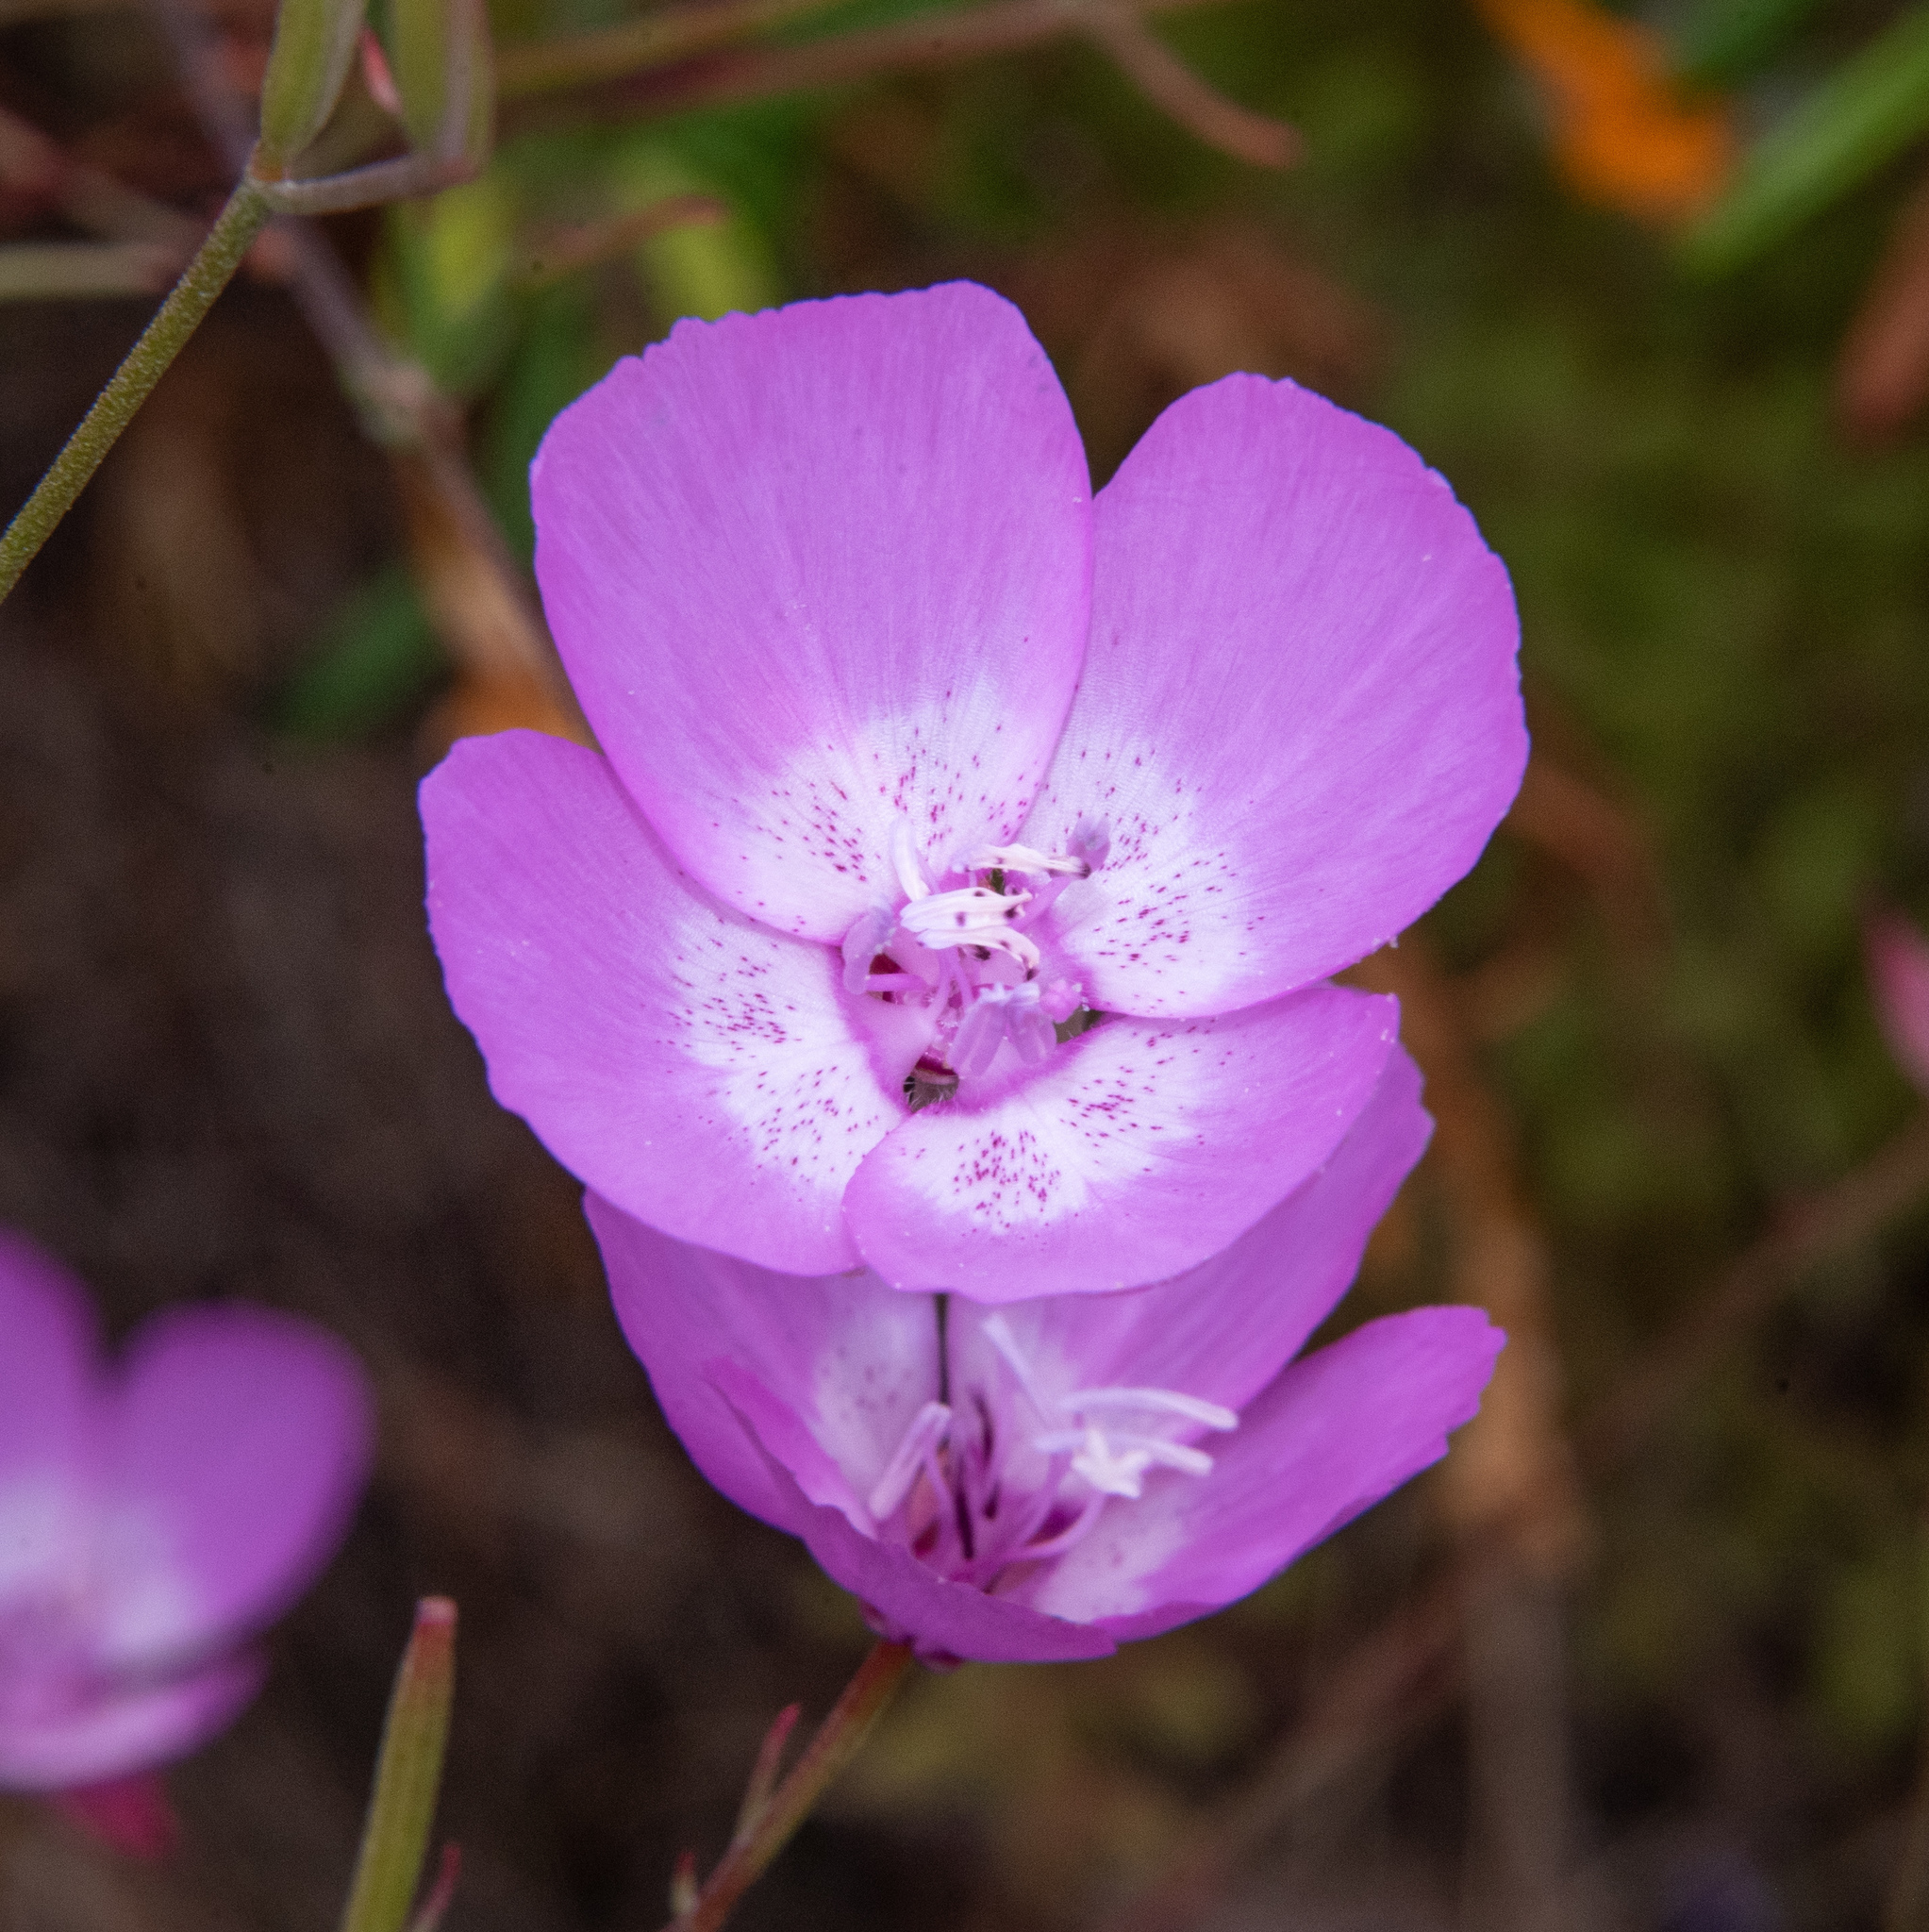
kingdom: Plantae
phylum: Tracheophyta
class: Magnoliopsida
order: Myrtales
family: Onagraceae
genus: Clarkia
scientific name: Clarkia cylindrica
